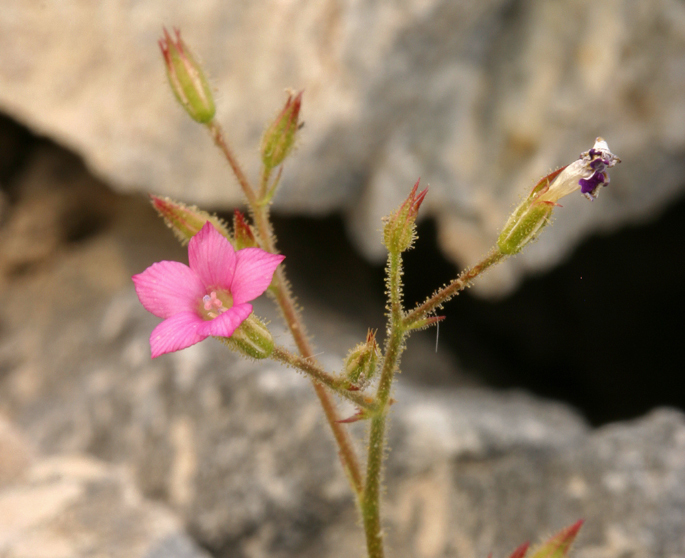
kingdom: Plantae
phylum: Tracheophyta
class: Magnoliopsida
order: Ericales
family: Polemoniaceae
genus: Aliciella
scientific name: Aliciella latifolia
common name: Broad-leaf gilia
